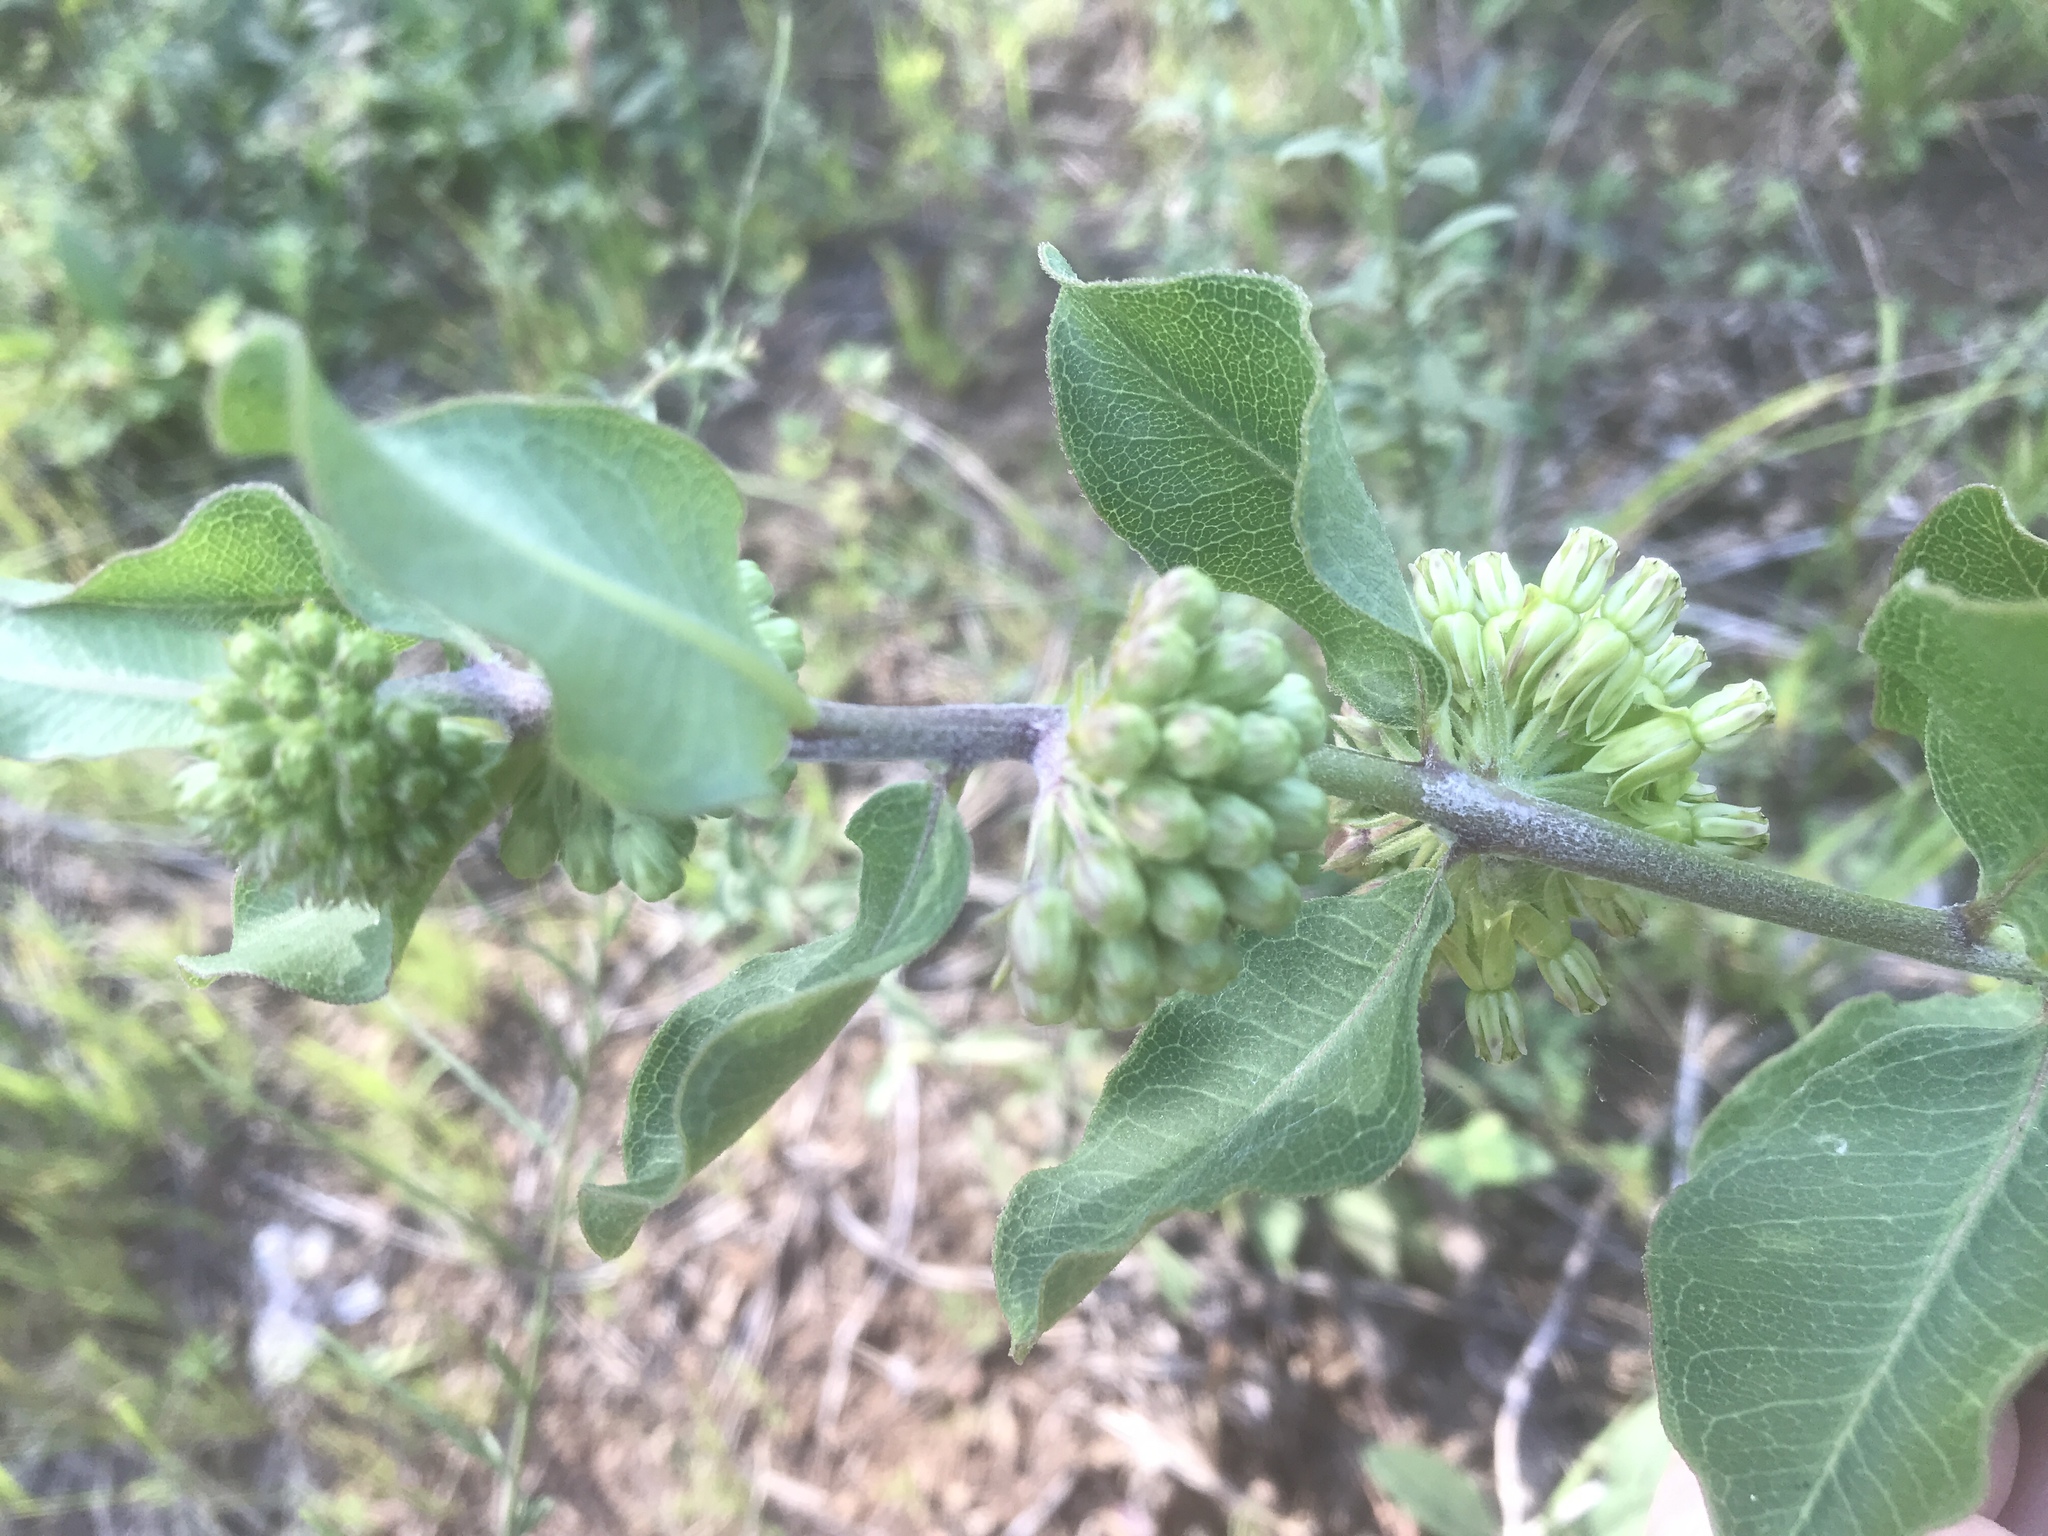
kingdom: Plantae
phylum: Tracheophyta
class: Magnoliopsida
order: Gentianales
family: Apocynaceae
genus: Asclepias
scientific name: Asclepias viridiflora
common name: Green comet milkweed
